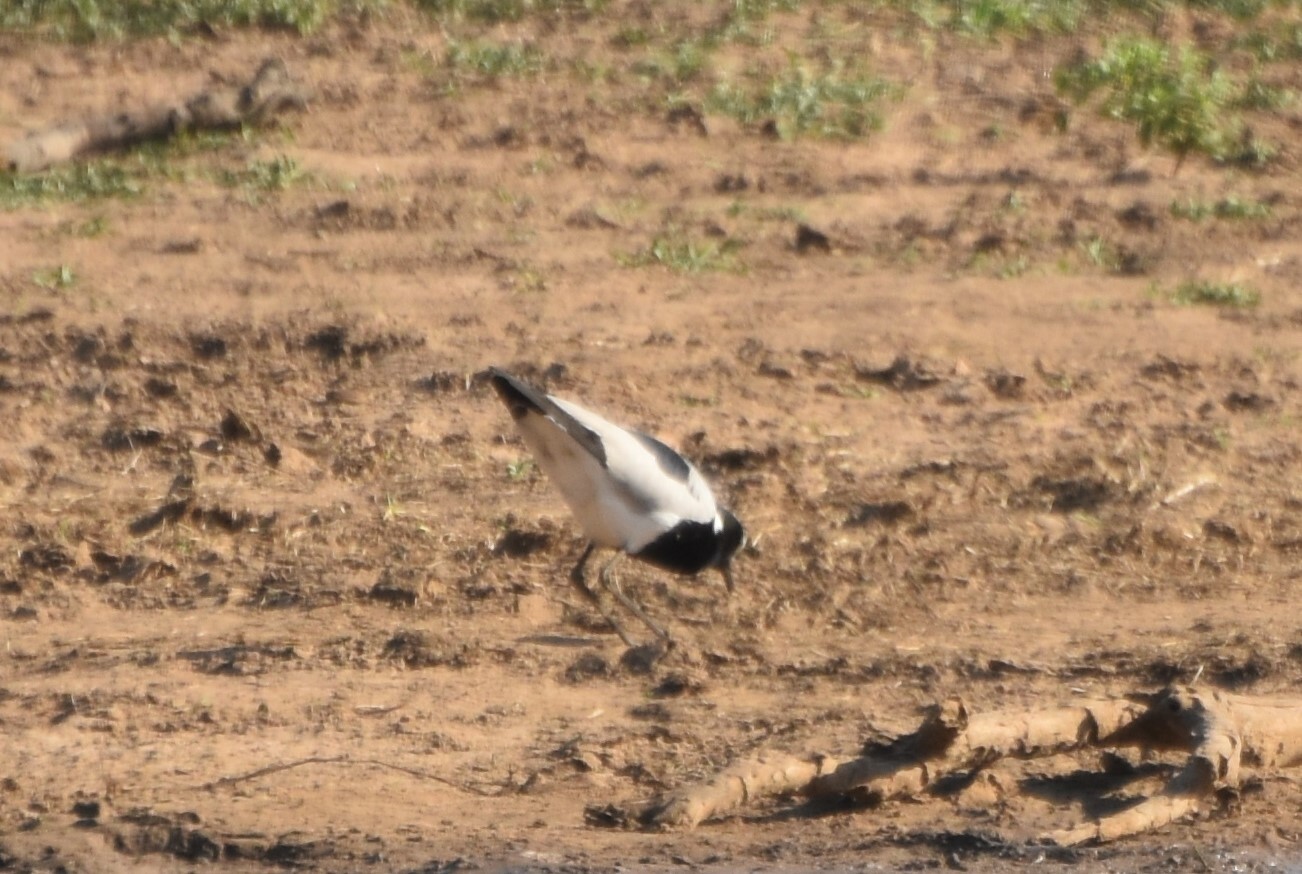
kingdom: Animalia
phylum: Chordata
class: Aves
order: Charadriiformes
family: Charadriidae
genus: Vanellus
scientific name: Vanellus armatus
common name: Blacksmith lapwing
